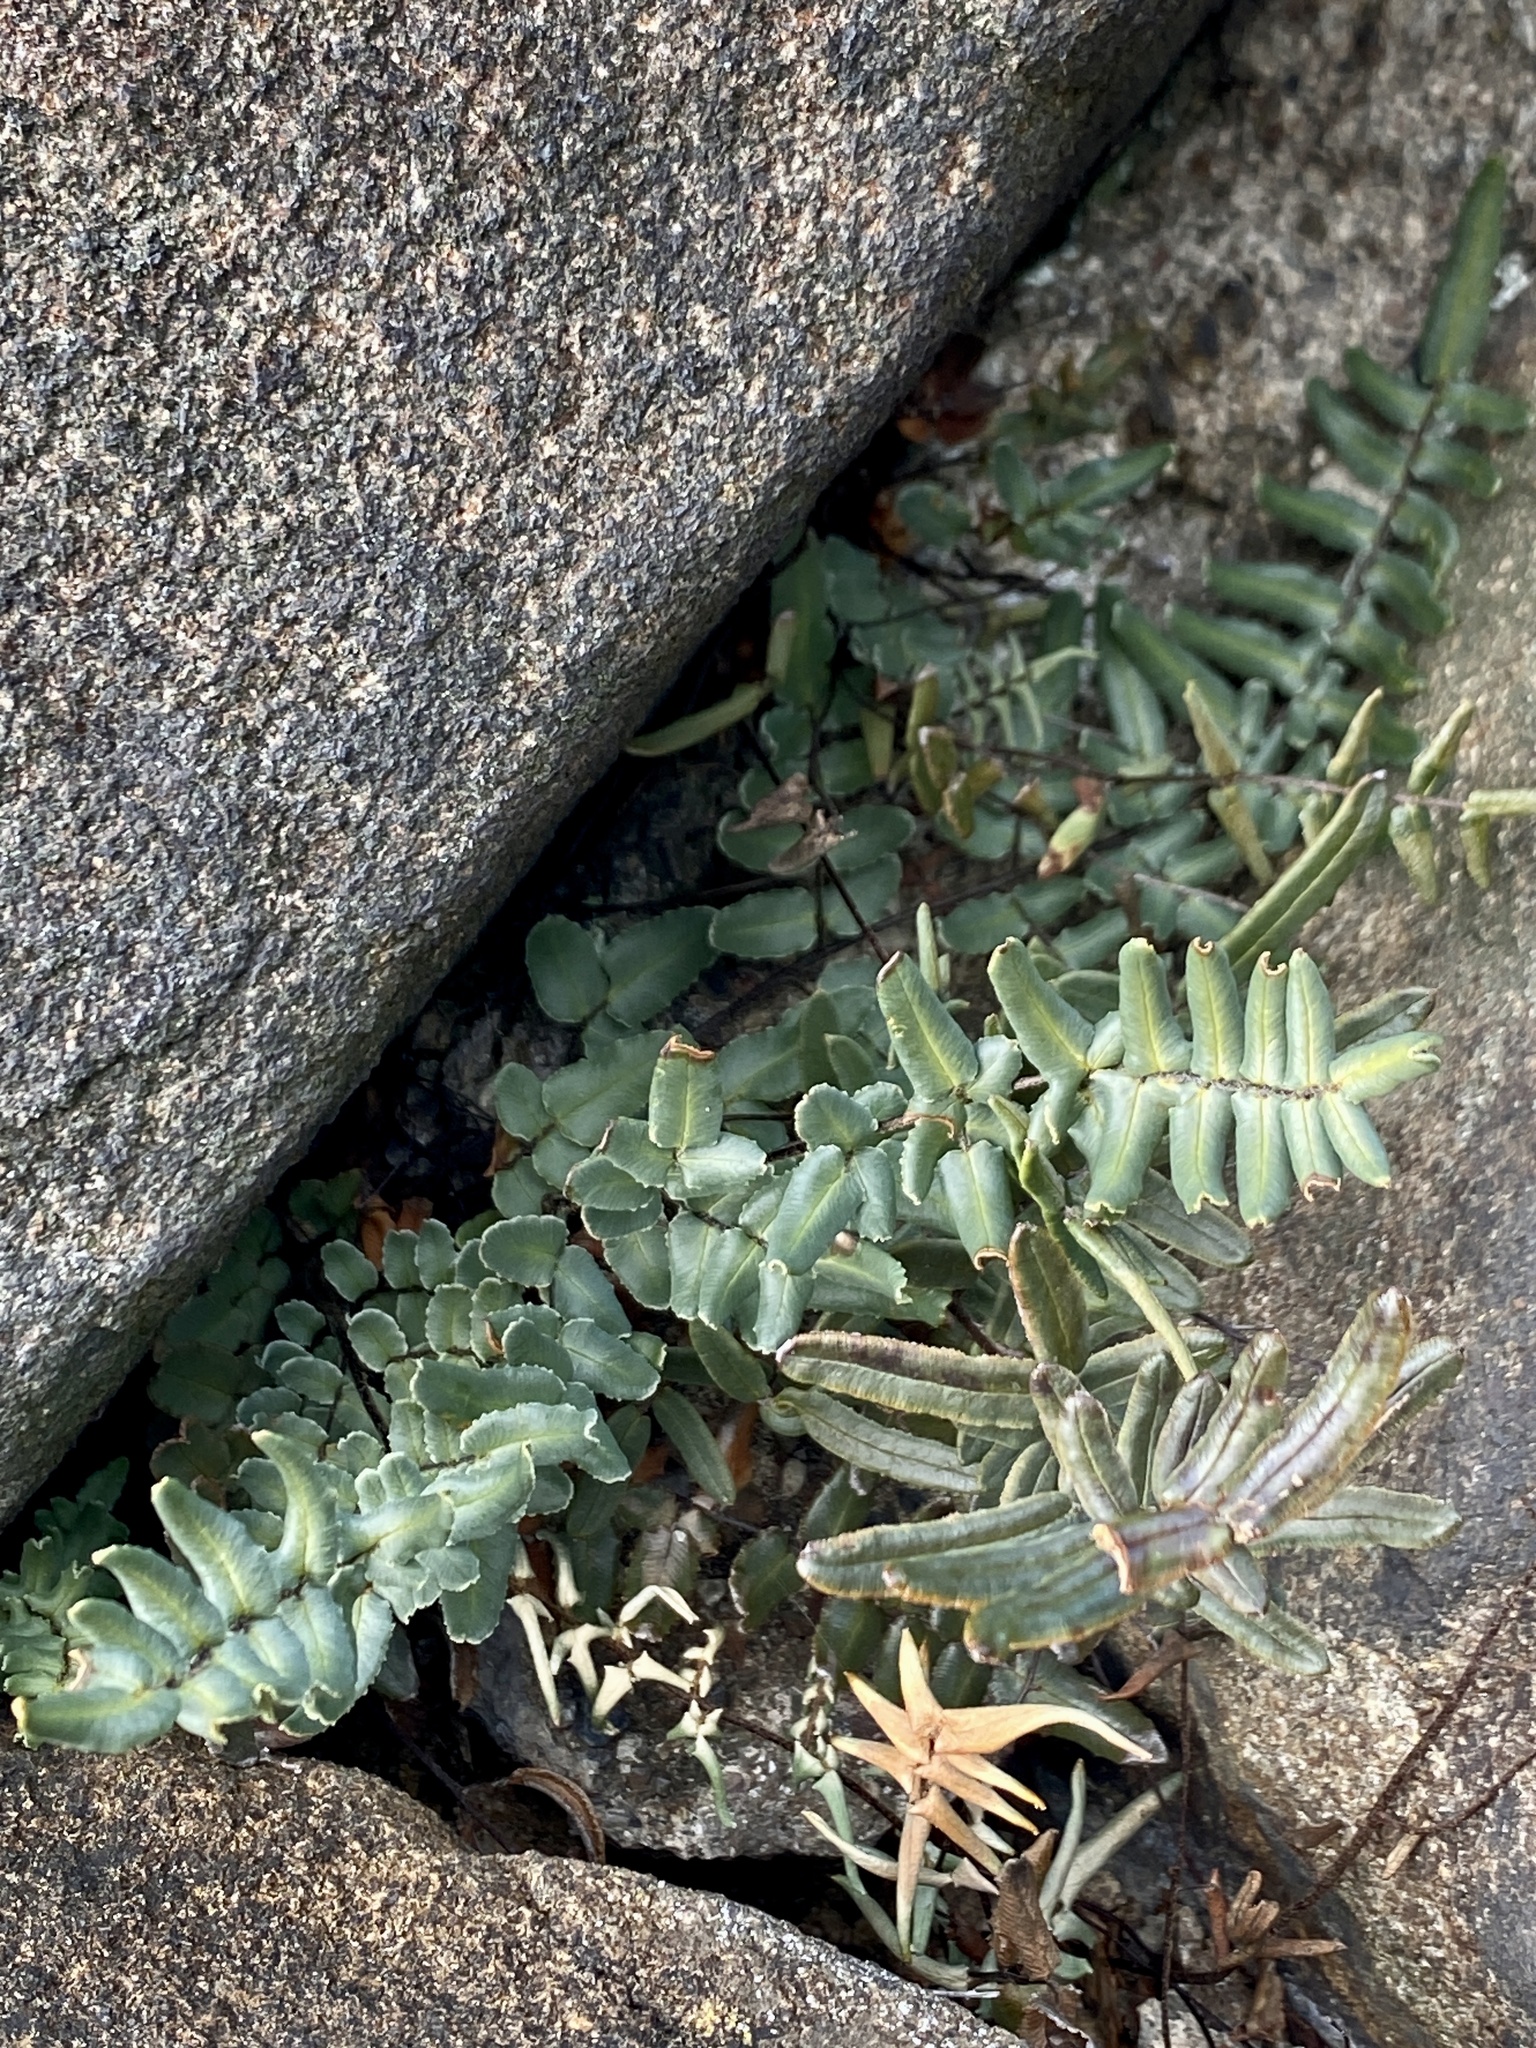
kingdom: Plantae
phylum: Tracheophyta
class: Polypodiopsida
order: Polypodiales
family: Pteridaceae
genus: Pellaea
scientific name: Pellaea atropurpurea
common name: Hairy cliffbrake
